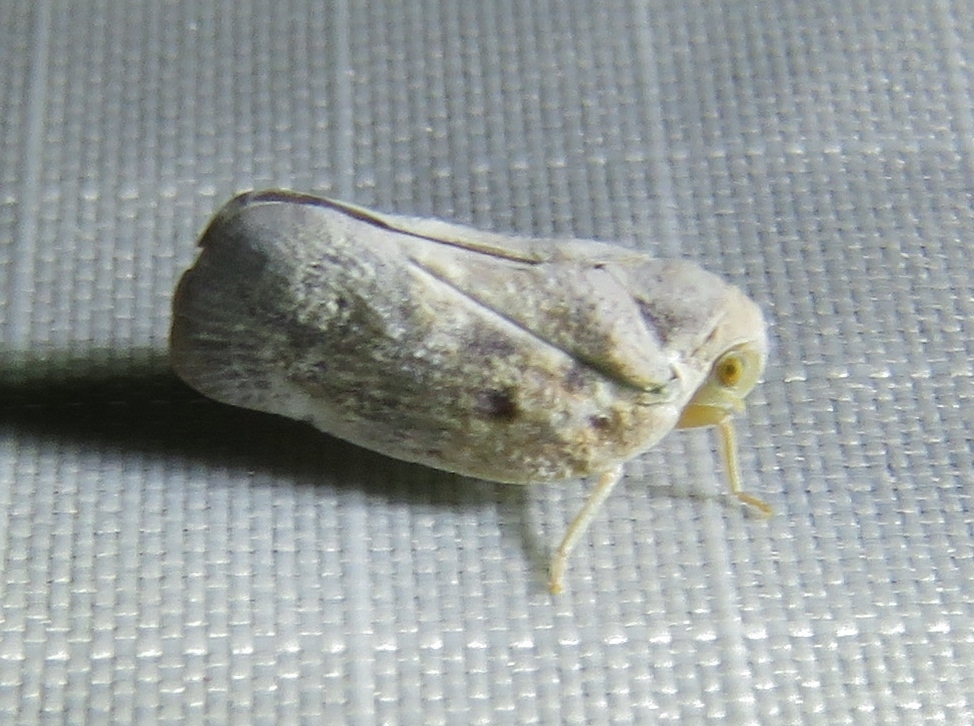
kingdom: Animalia
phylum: Arthropoda
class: Insecta
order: Hemiptera
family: Flatidae
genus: Metcalfa
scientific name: Metcalfa pruinosa
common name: Citrus flatid planthopper
